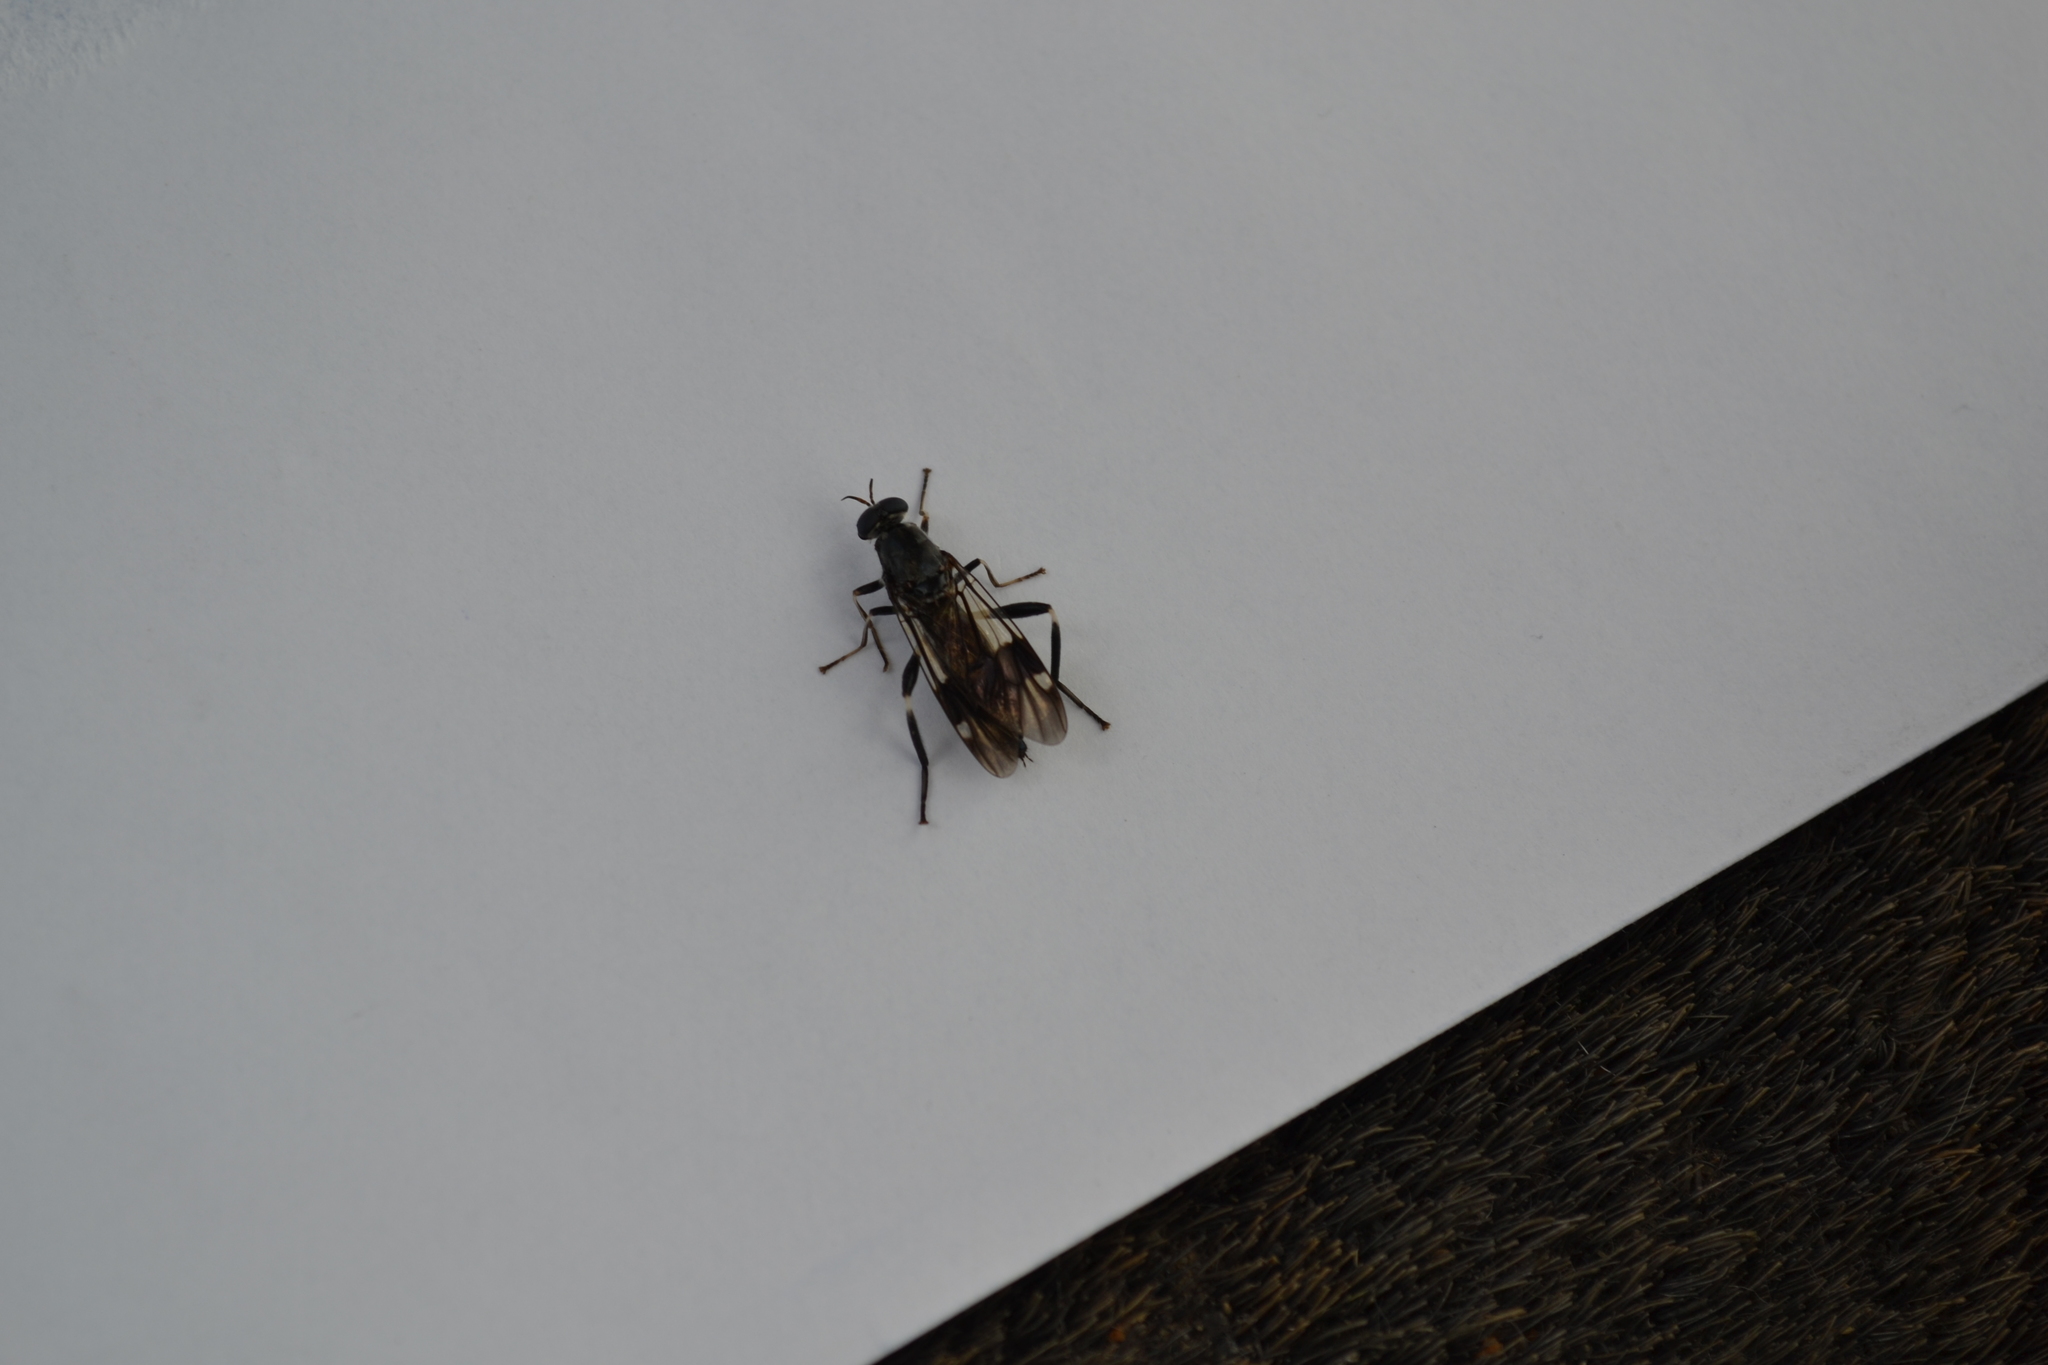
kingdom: Animalia
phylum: Arthropoda
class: Insecta
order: Diptera
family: Stratiomyidae
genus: Exaireta
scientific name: Exaireta spinigera
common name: Blue soldier fly
